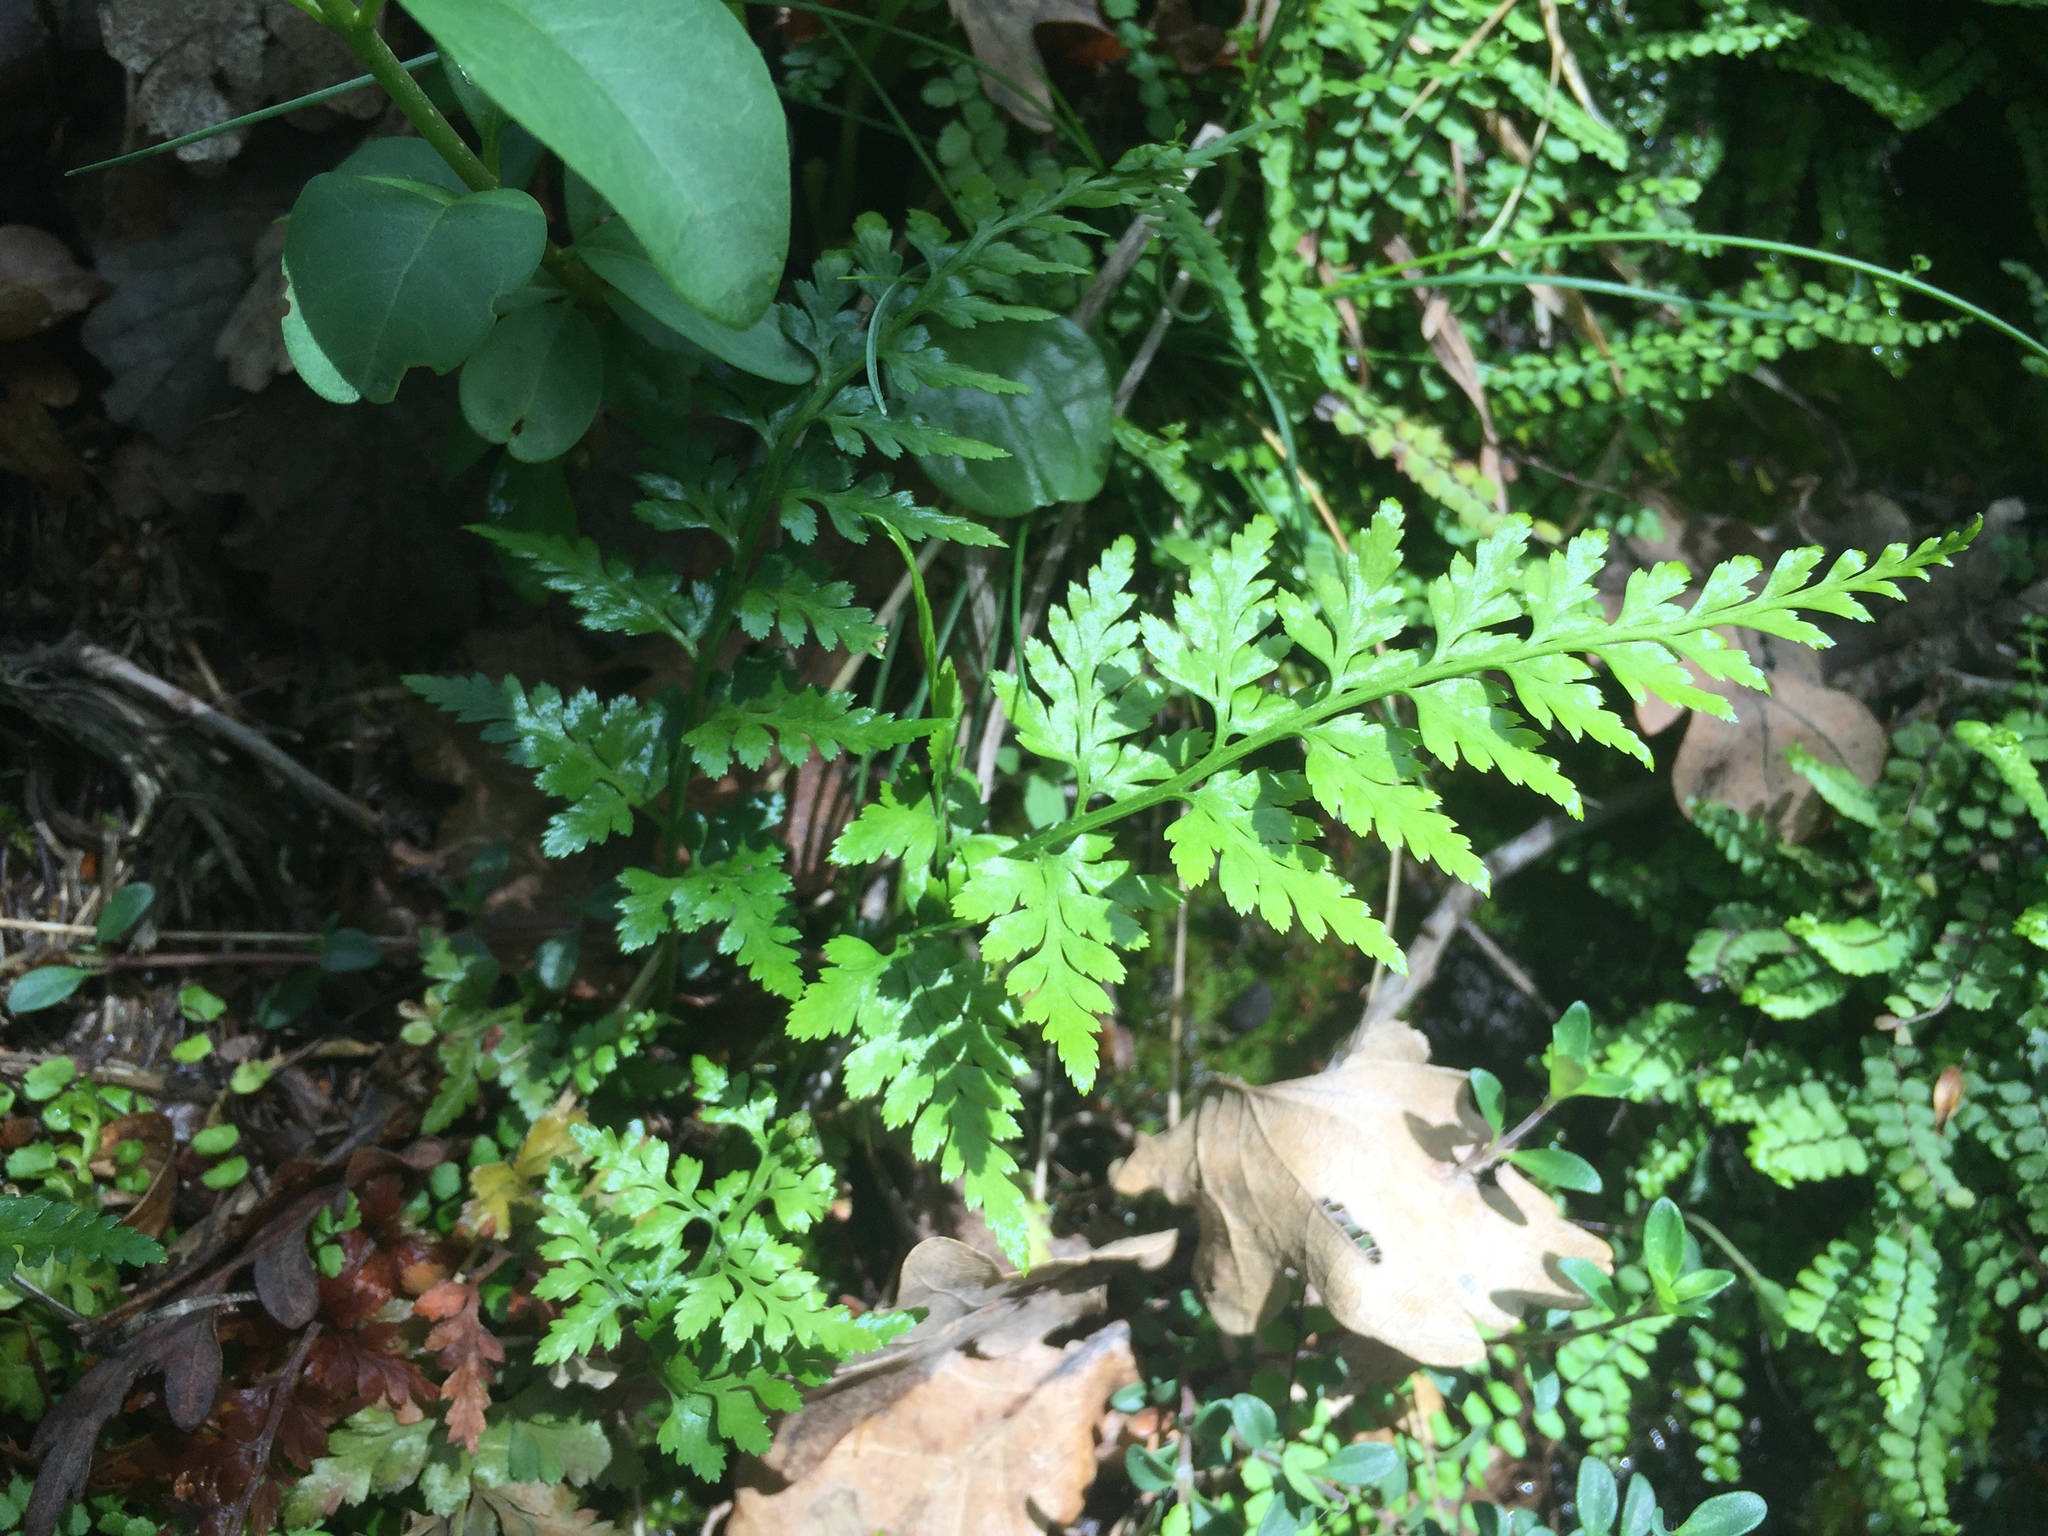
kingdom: Plantae
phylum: Tracheophyta
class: Polypodiopsida
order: Polypodiales
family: Aspleniaceae
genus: Asplenium
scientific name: Asplenium adiantum-nigrum
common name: Black spleenwort
